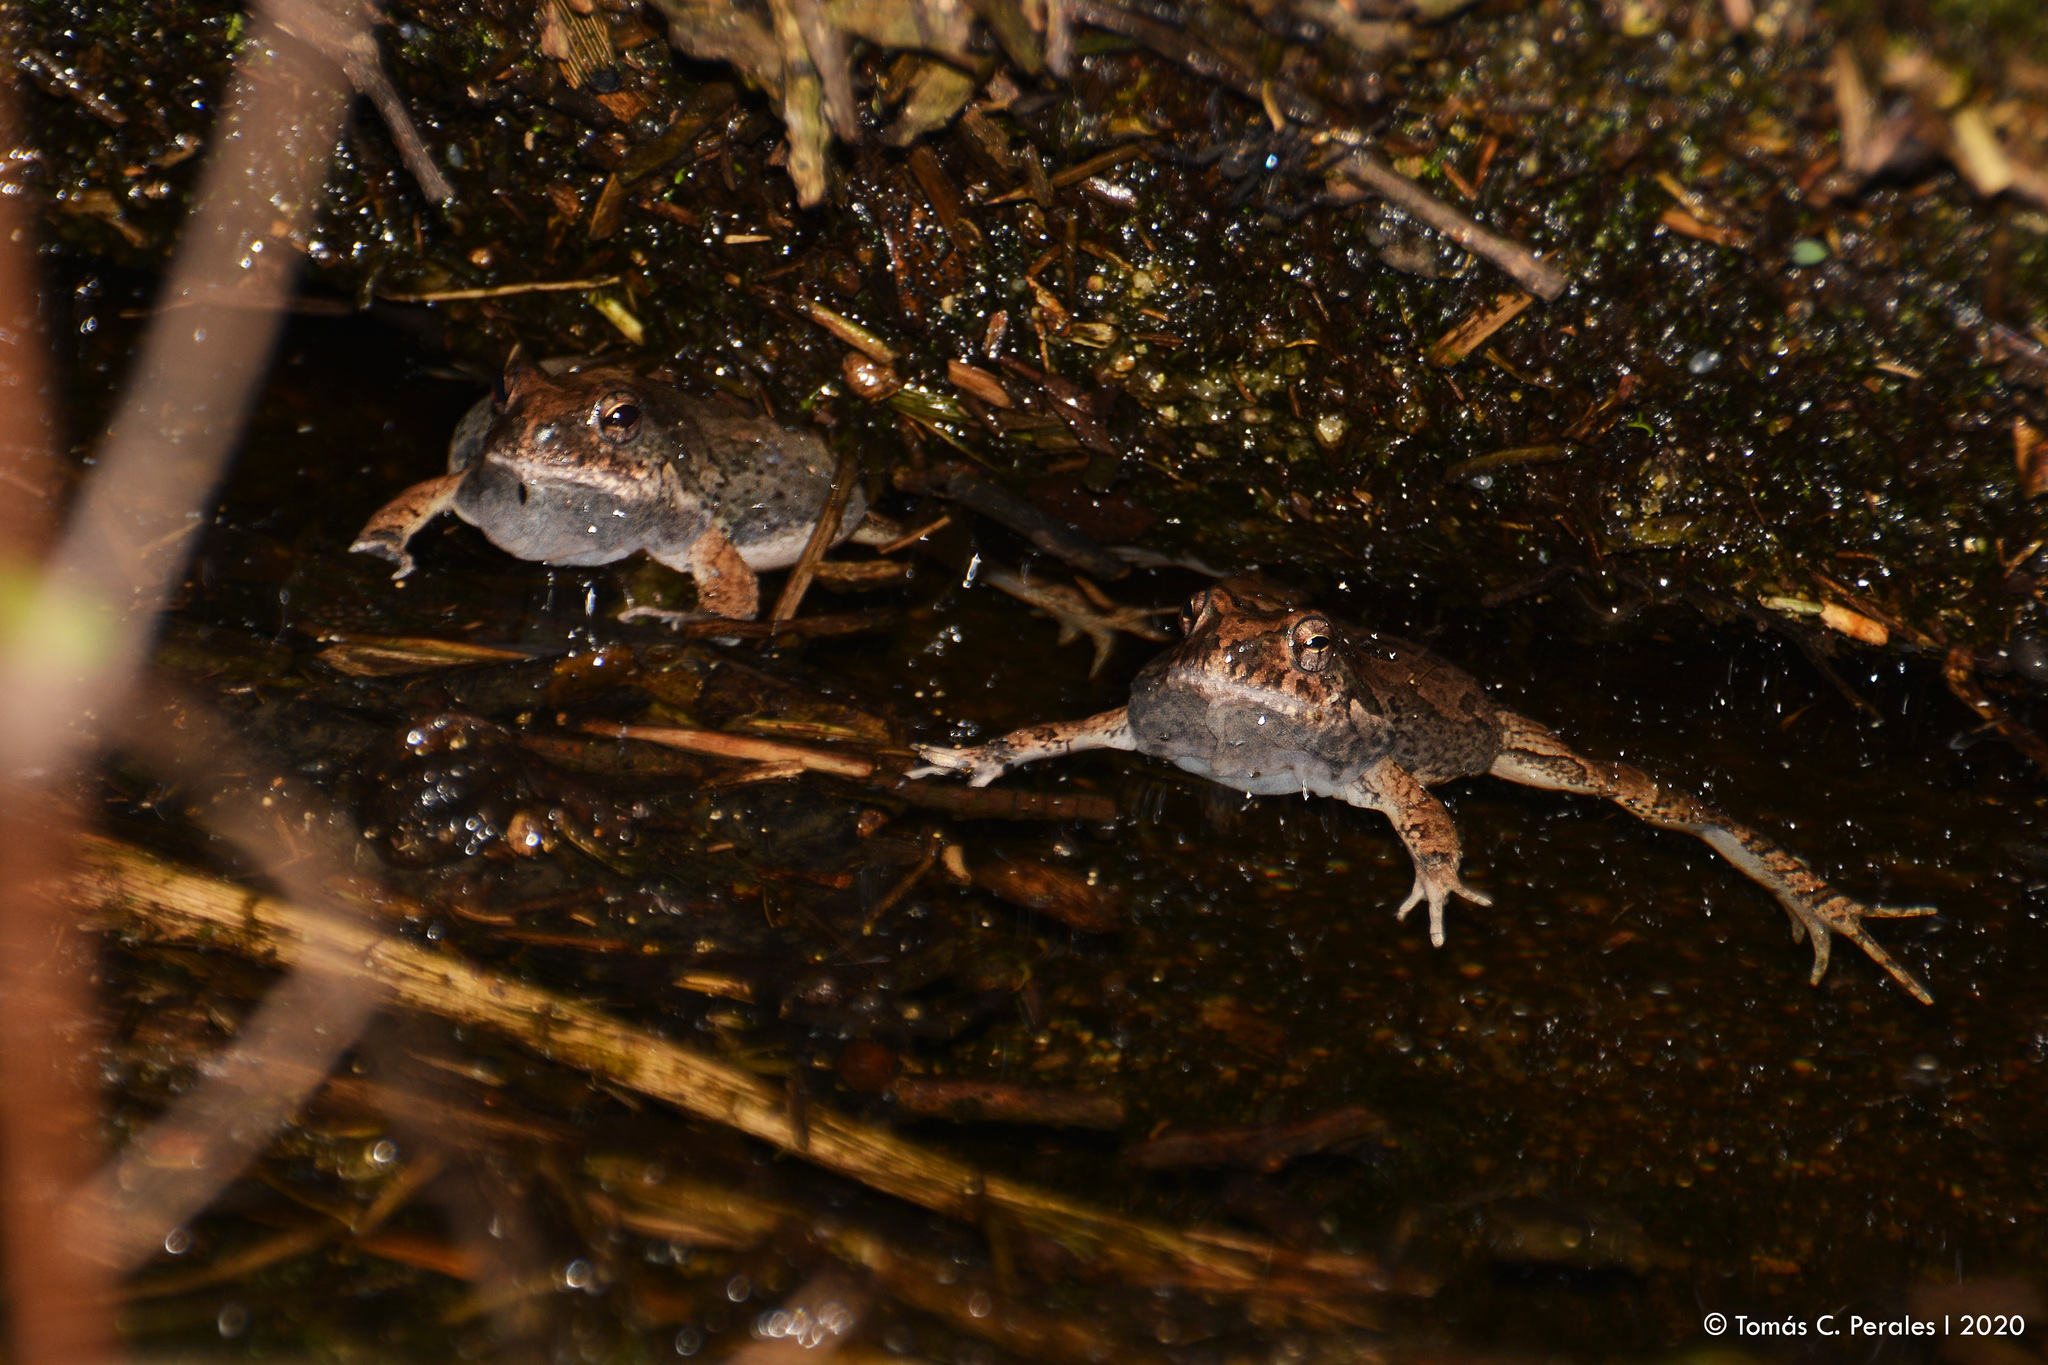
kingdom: Animalia
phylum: Chordata
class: Amphibia
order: Anura
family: Leptodactylidae
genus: Physalaemus
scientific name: Physalaemus biligonigerus
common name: Weeping frog
